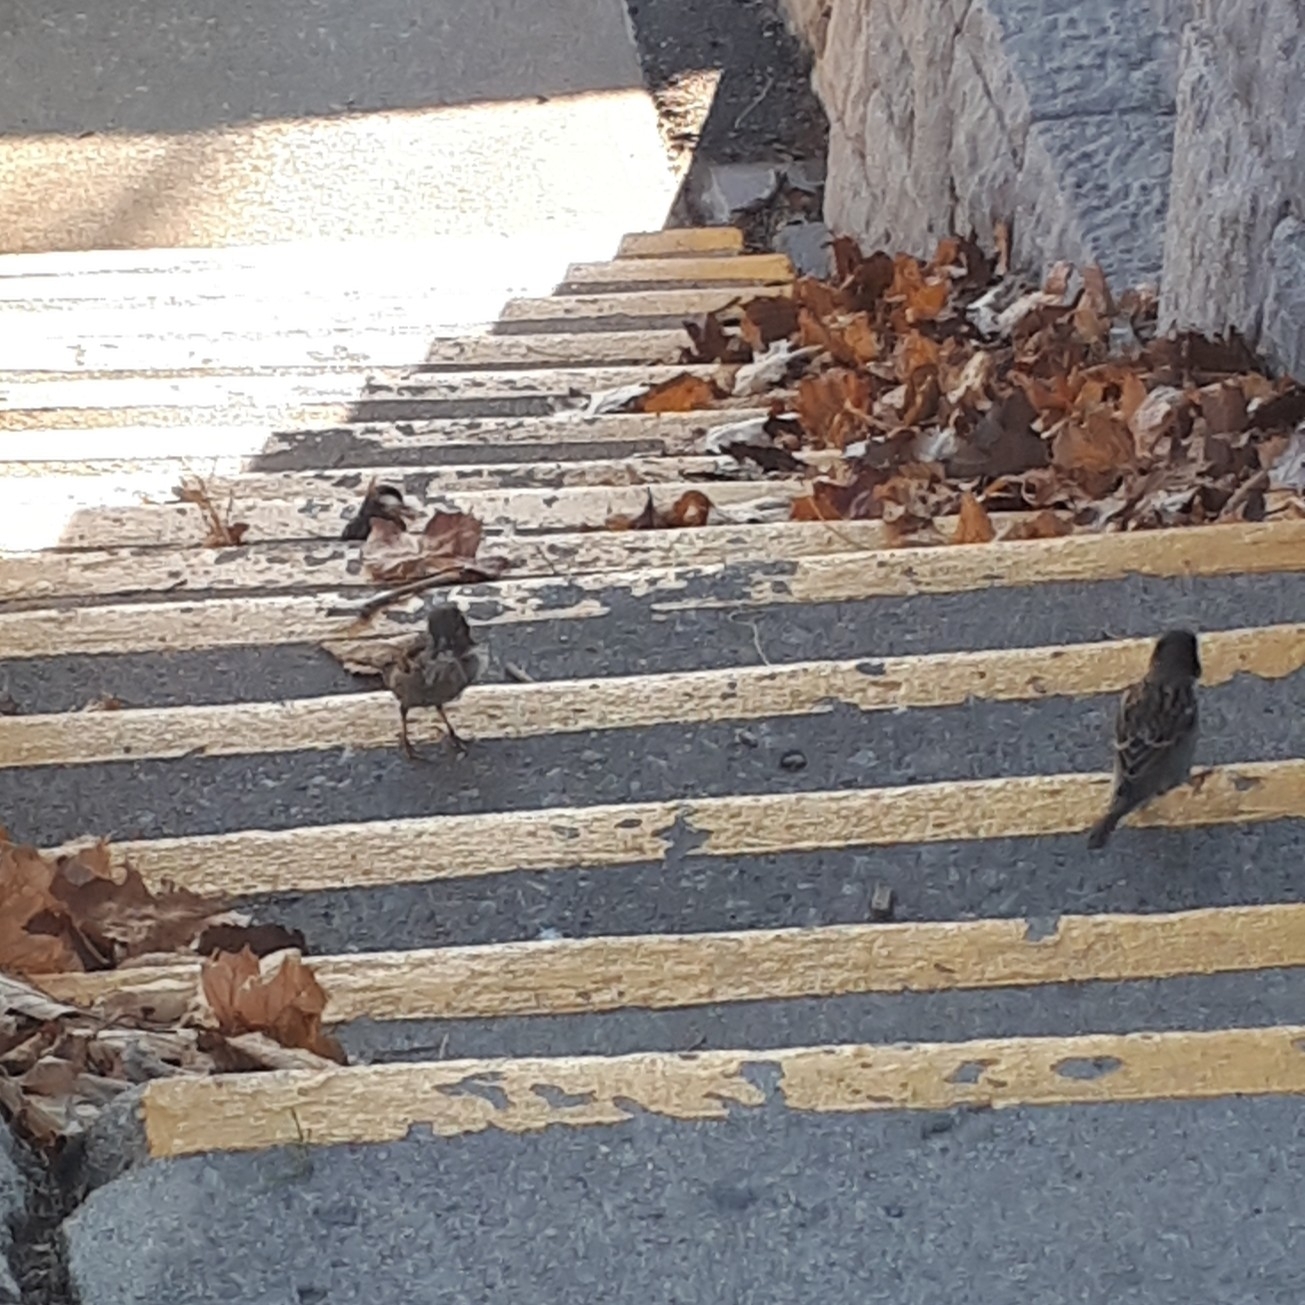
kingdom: Animalia
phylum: Chordata
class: Aves
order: Passeriformes
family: Passeridae
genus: Passer
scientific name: Passer domesticus
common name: House sparrow
